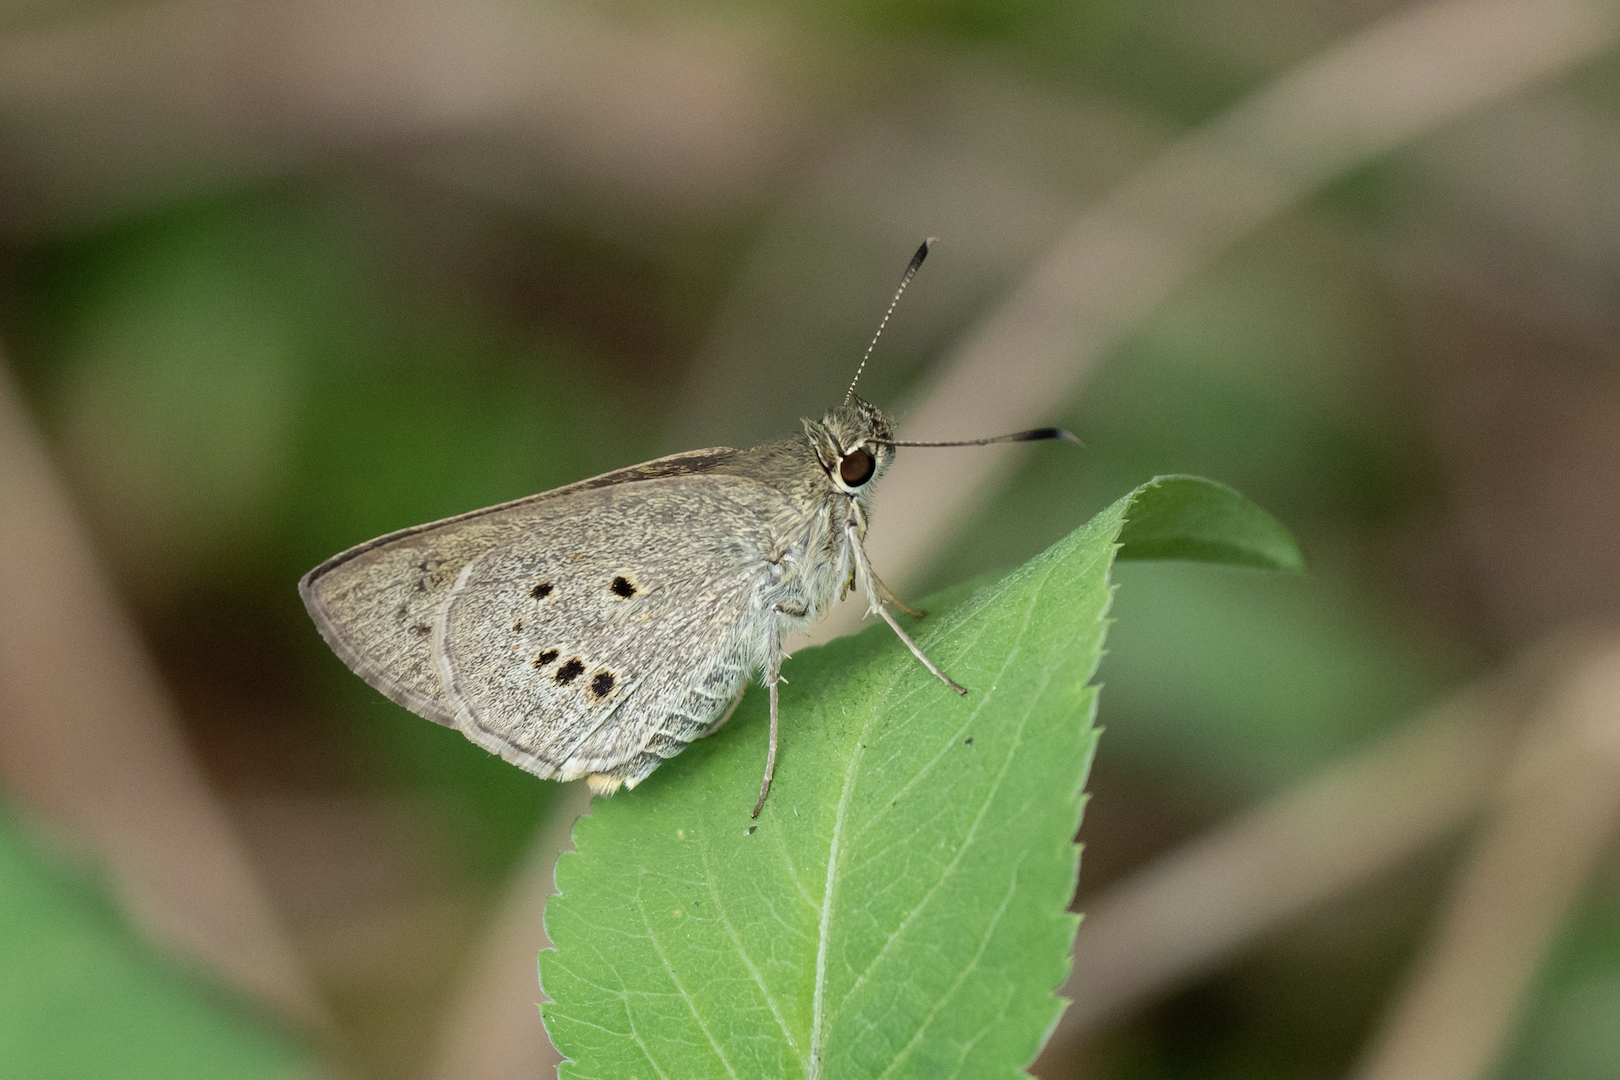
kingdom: Animalia
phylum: Arthropoda
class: Insecta
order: Lepidoptera
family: Hesperiidae
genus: Suastus
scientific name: Suastus gremius
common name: Indian palm bob
